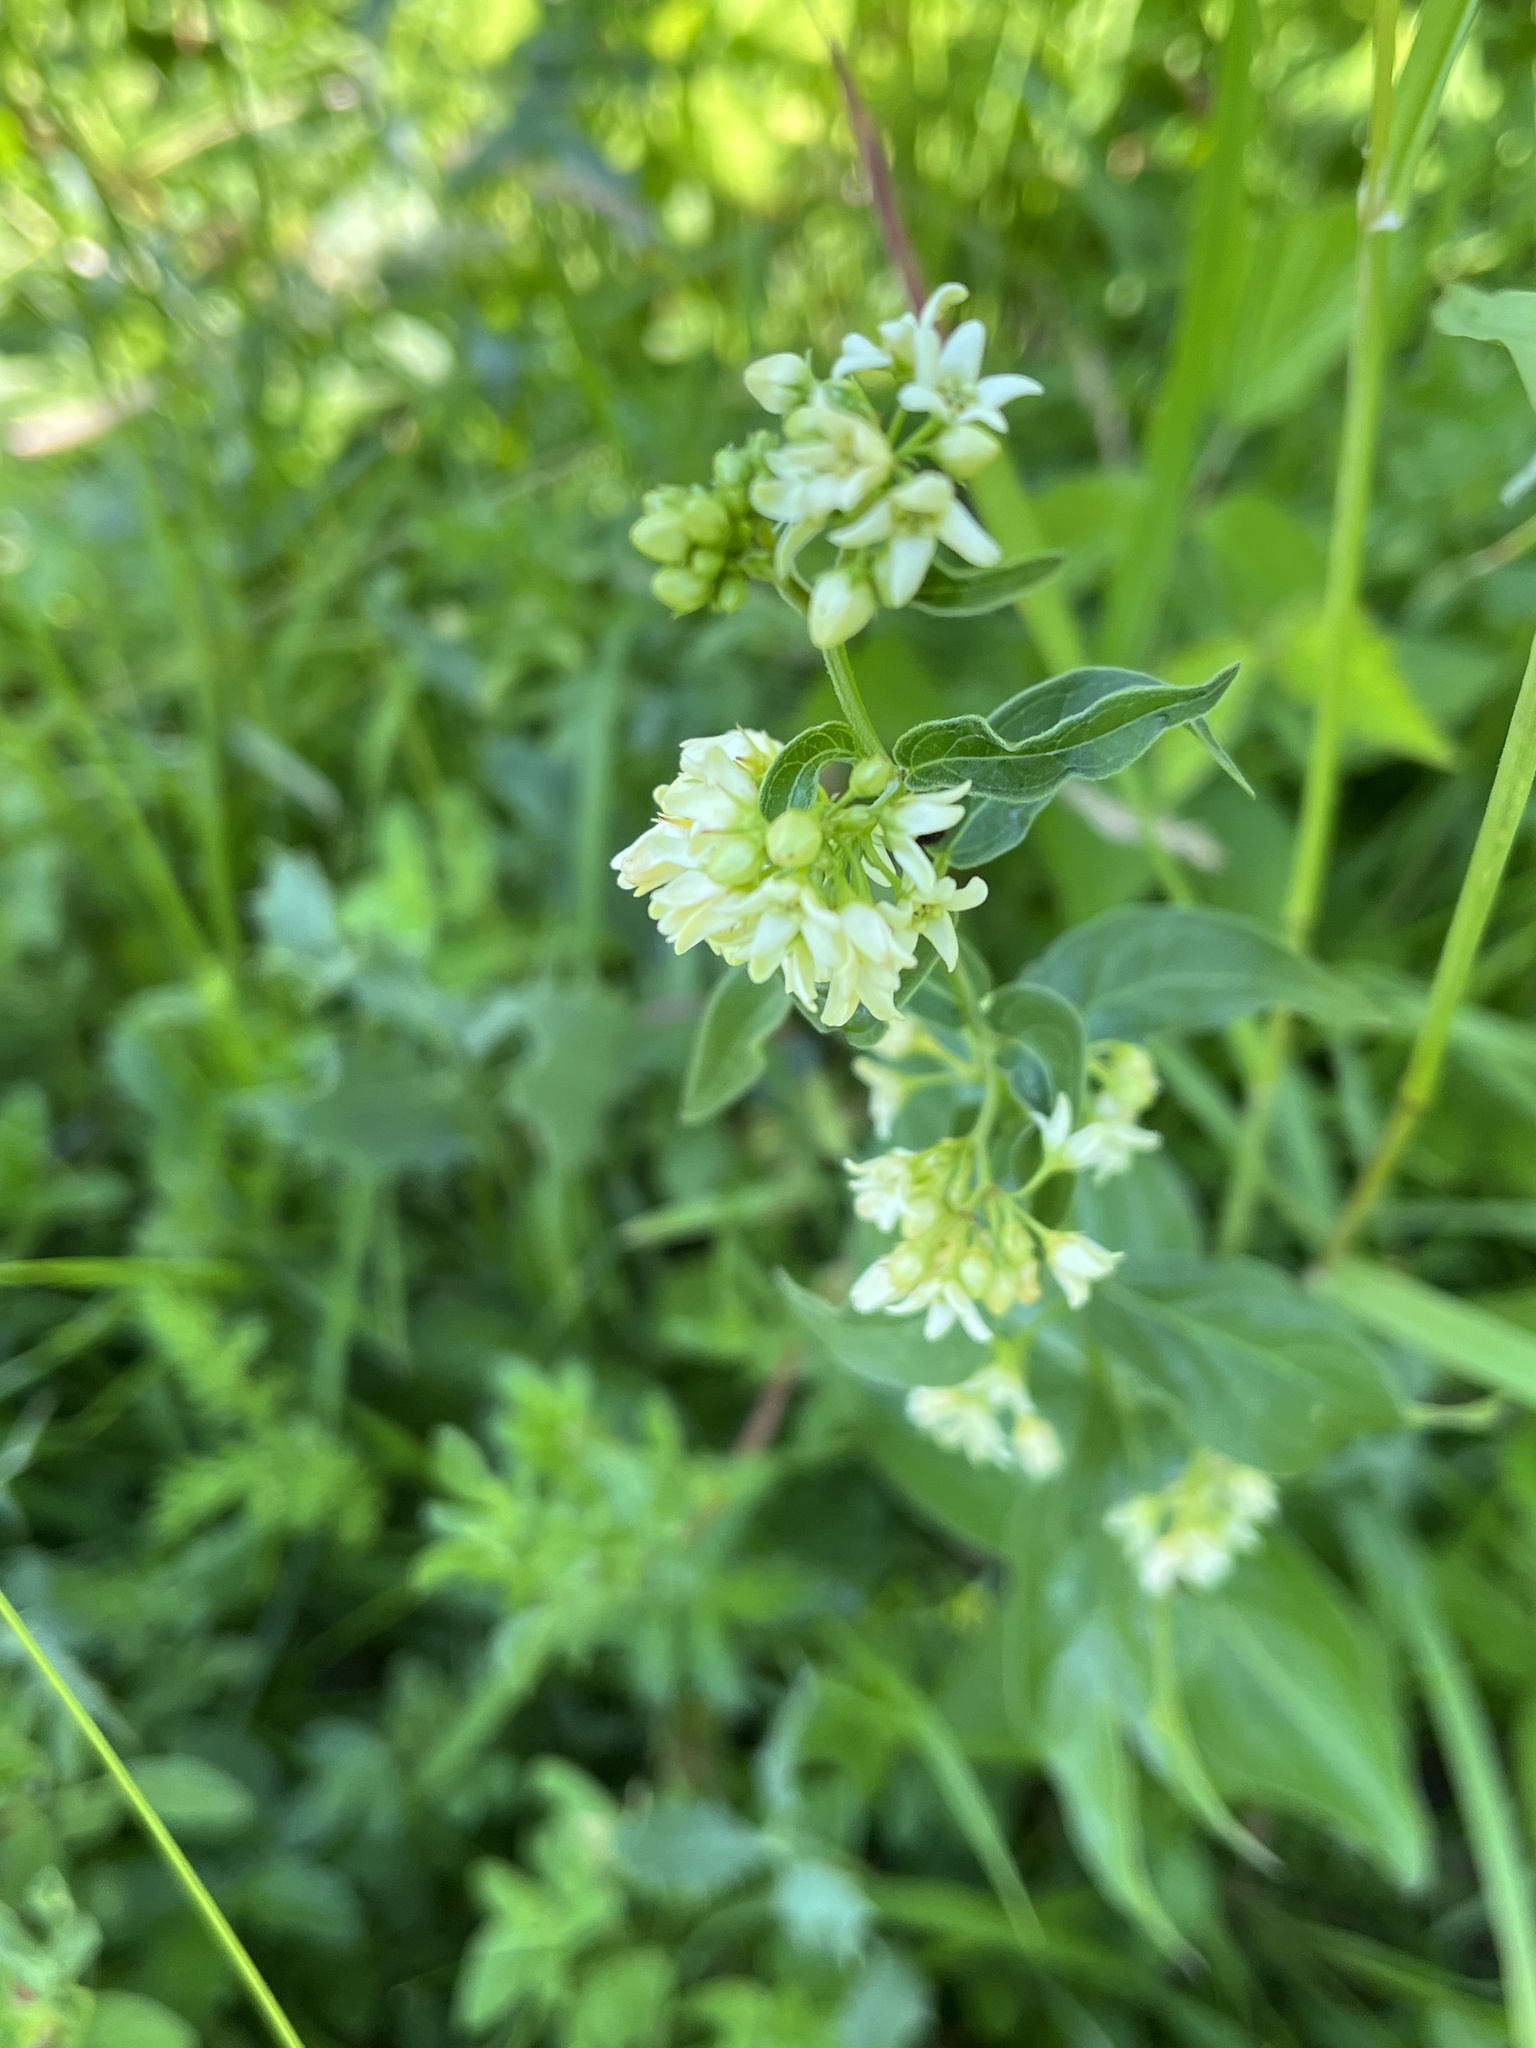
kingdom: Plantae
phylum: Tracheophyta
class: Magnoliopsida
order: Gentianales
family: Apocynaceae
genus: Vincetoxicum
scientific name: Vincetoxicum hirundinaria
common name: White swallowwort
